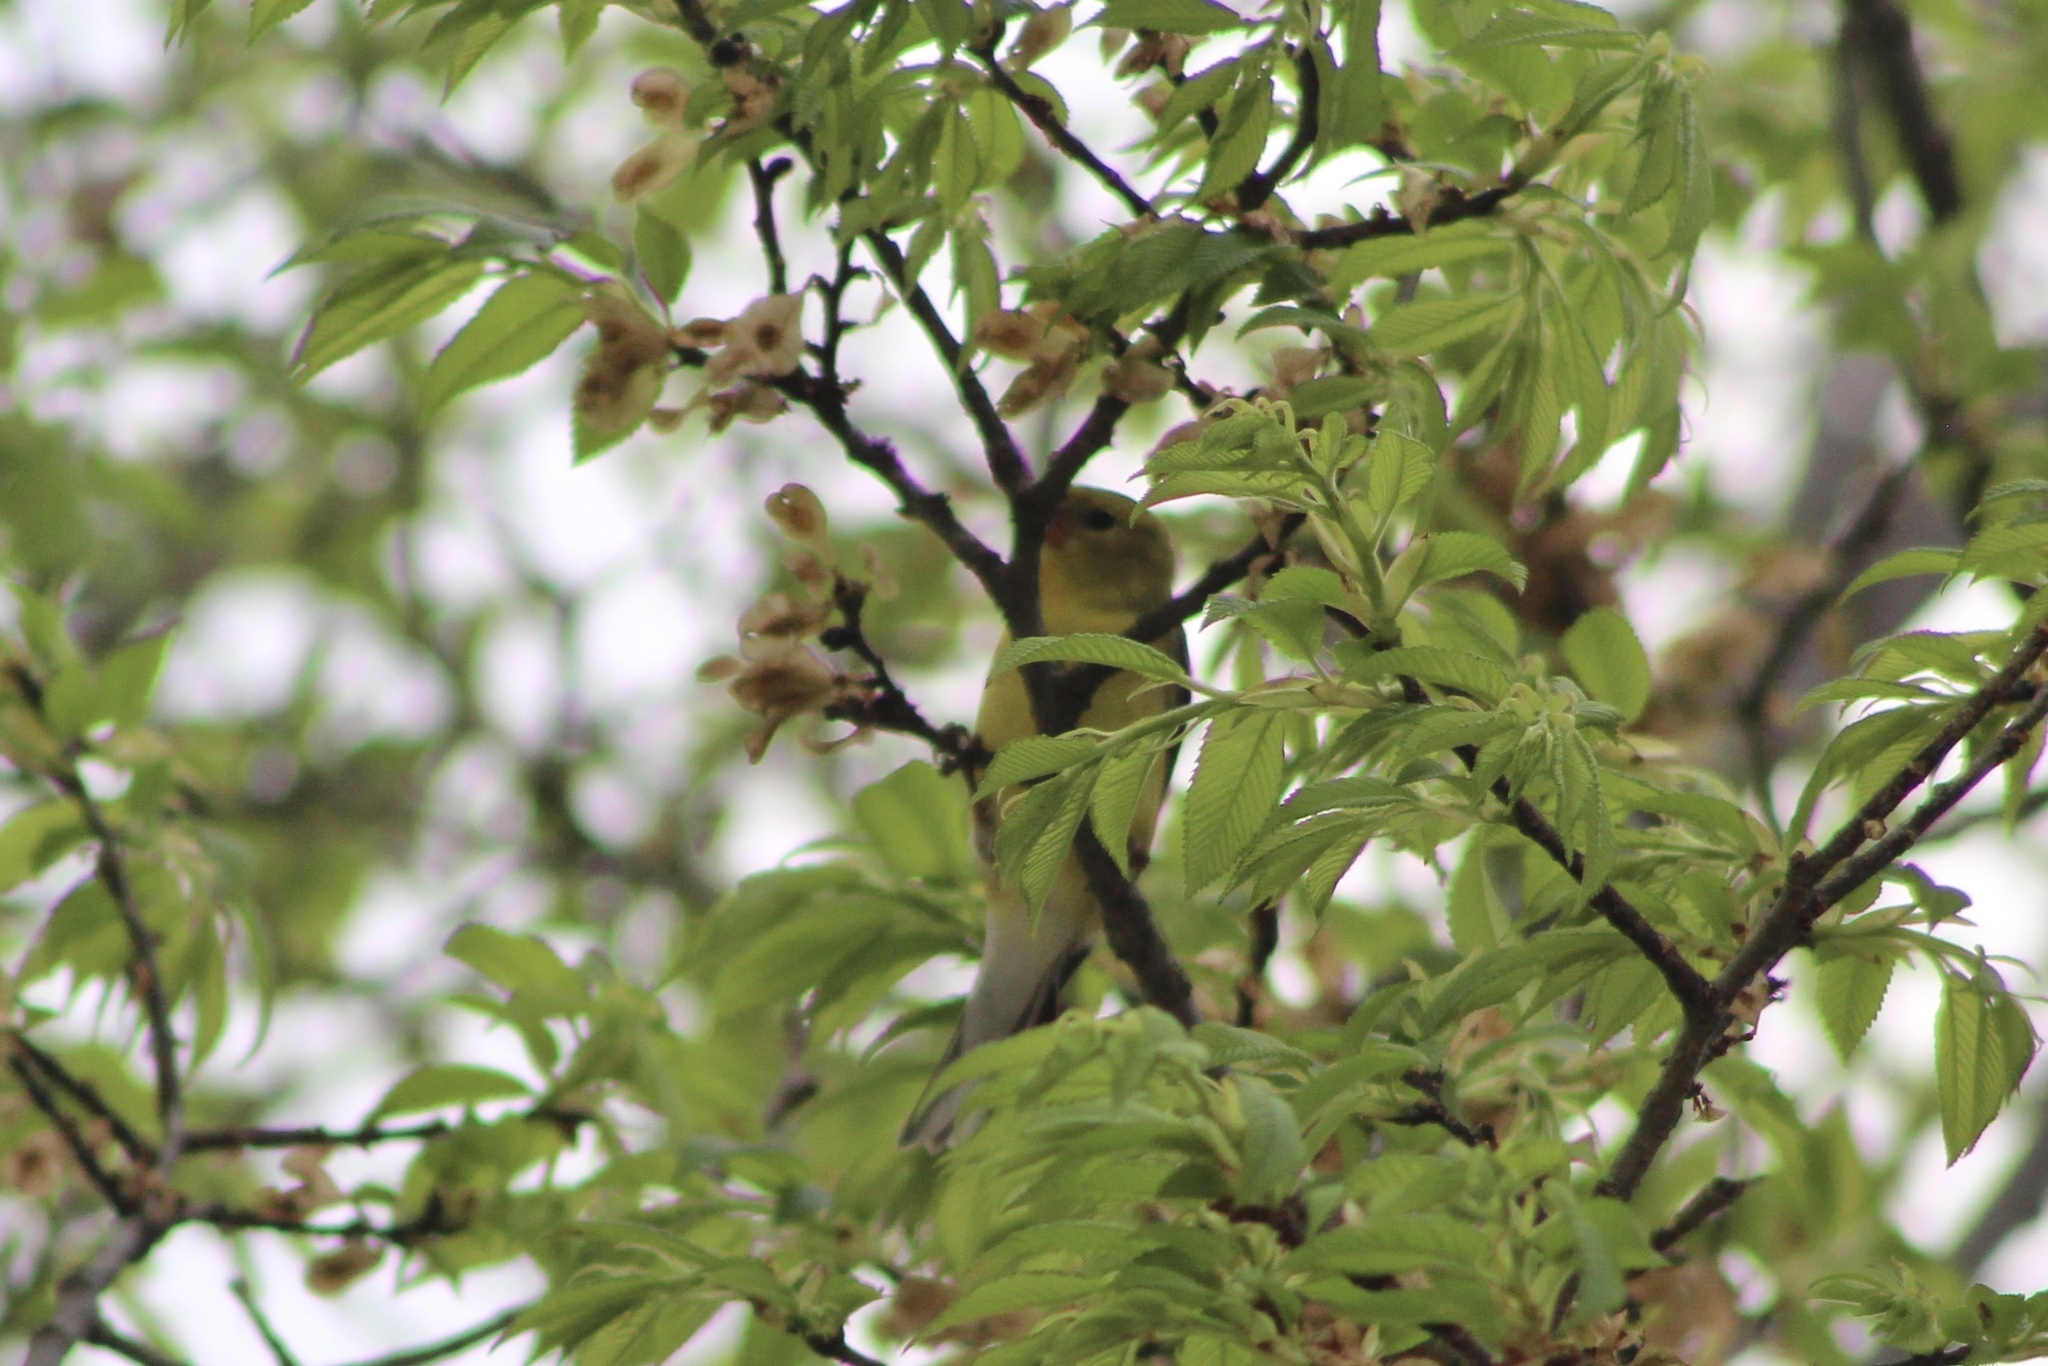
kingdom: Animalia
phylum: Chordata
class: Aves
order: Passeriformes
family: Fringillidae
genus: Spinus
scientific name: Spinus tristis
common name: American goldfinch
